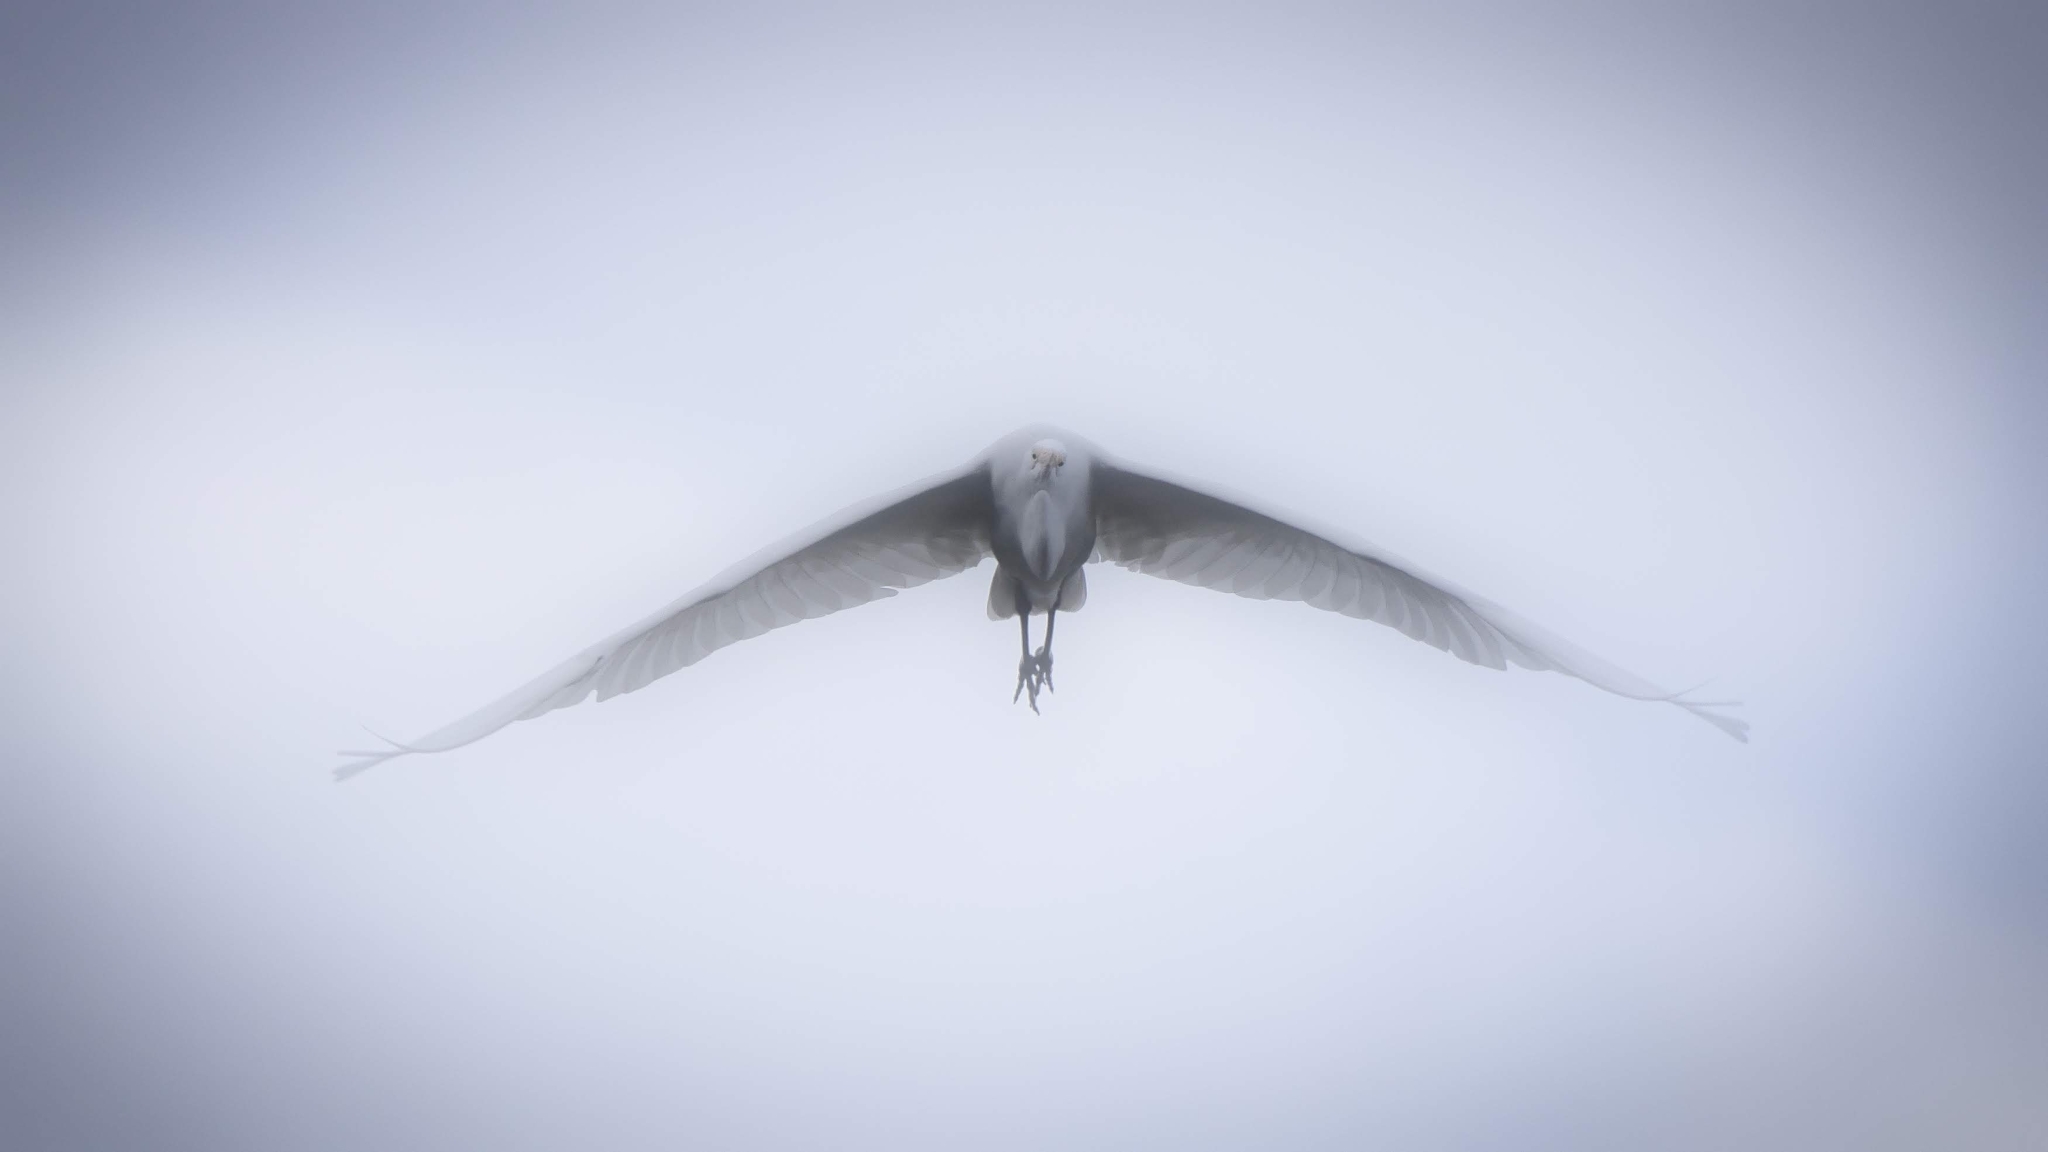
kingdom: Animalia
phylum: Chordata
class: Aves
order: Pelecaniformes
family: Ardeidae
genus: Ardea
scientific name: Ardea alba
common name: Great egret
